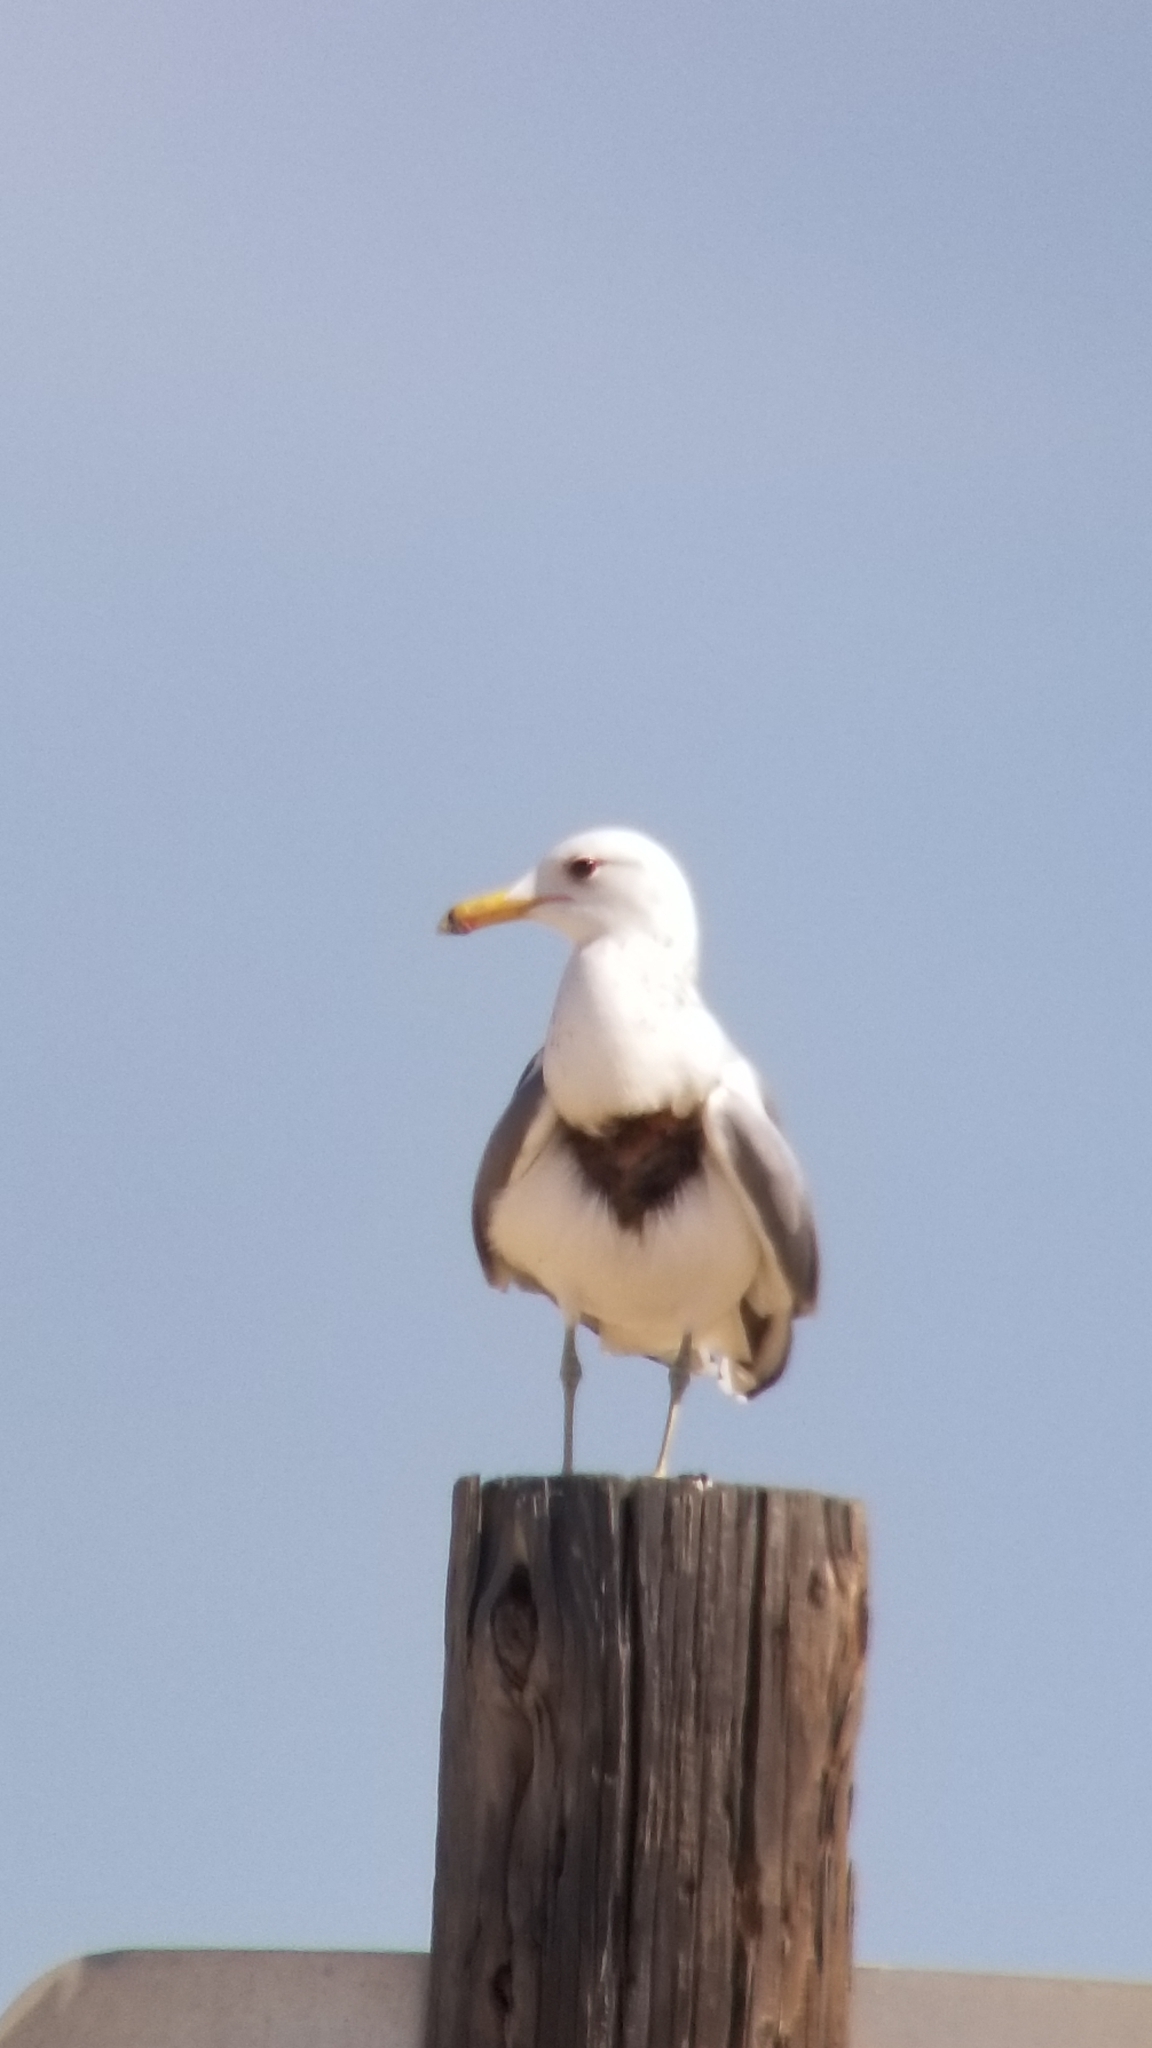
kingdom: Animalia
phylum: Chordata
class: Aves
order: Charadriiformes
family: Laridae
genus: Larus
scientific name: Larus californicus
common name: California gull
